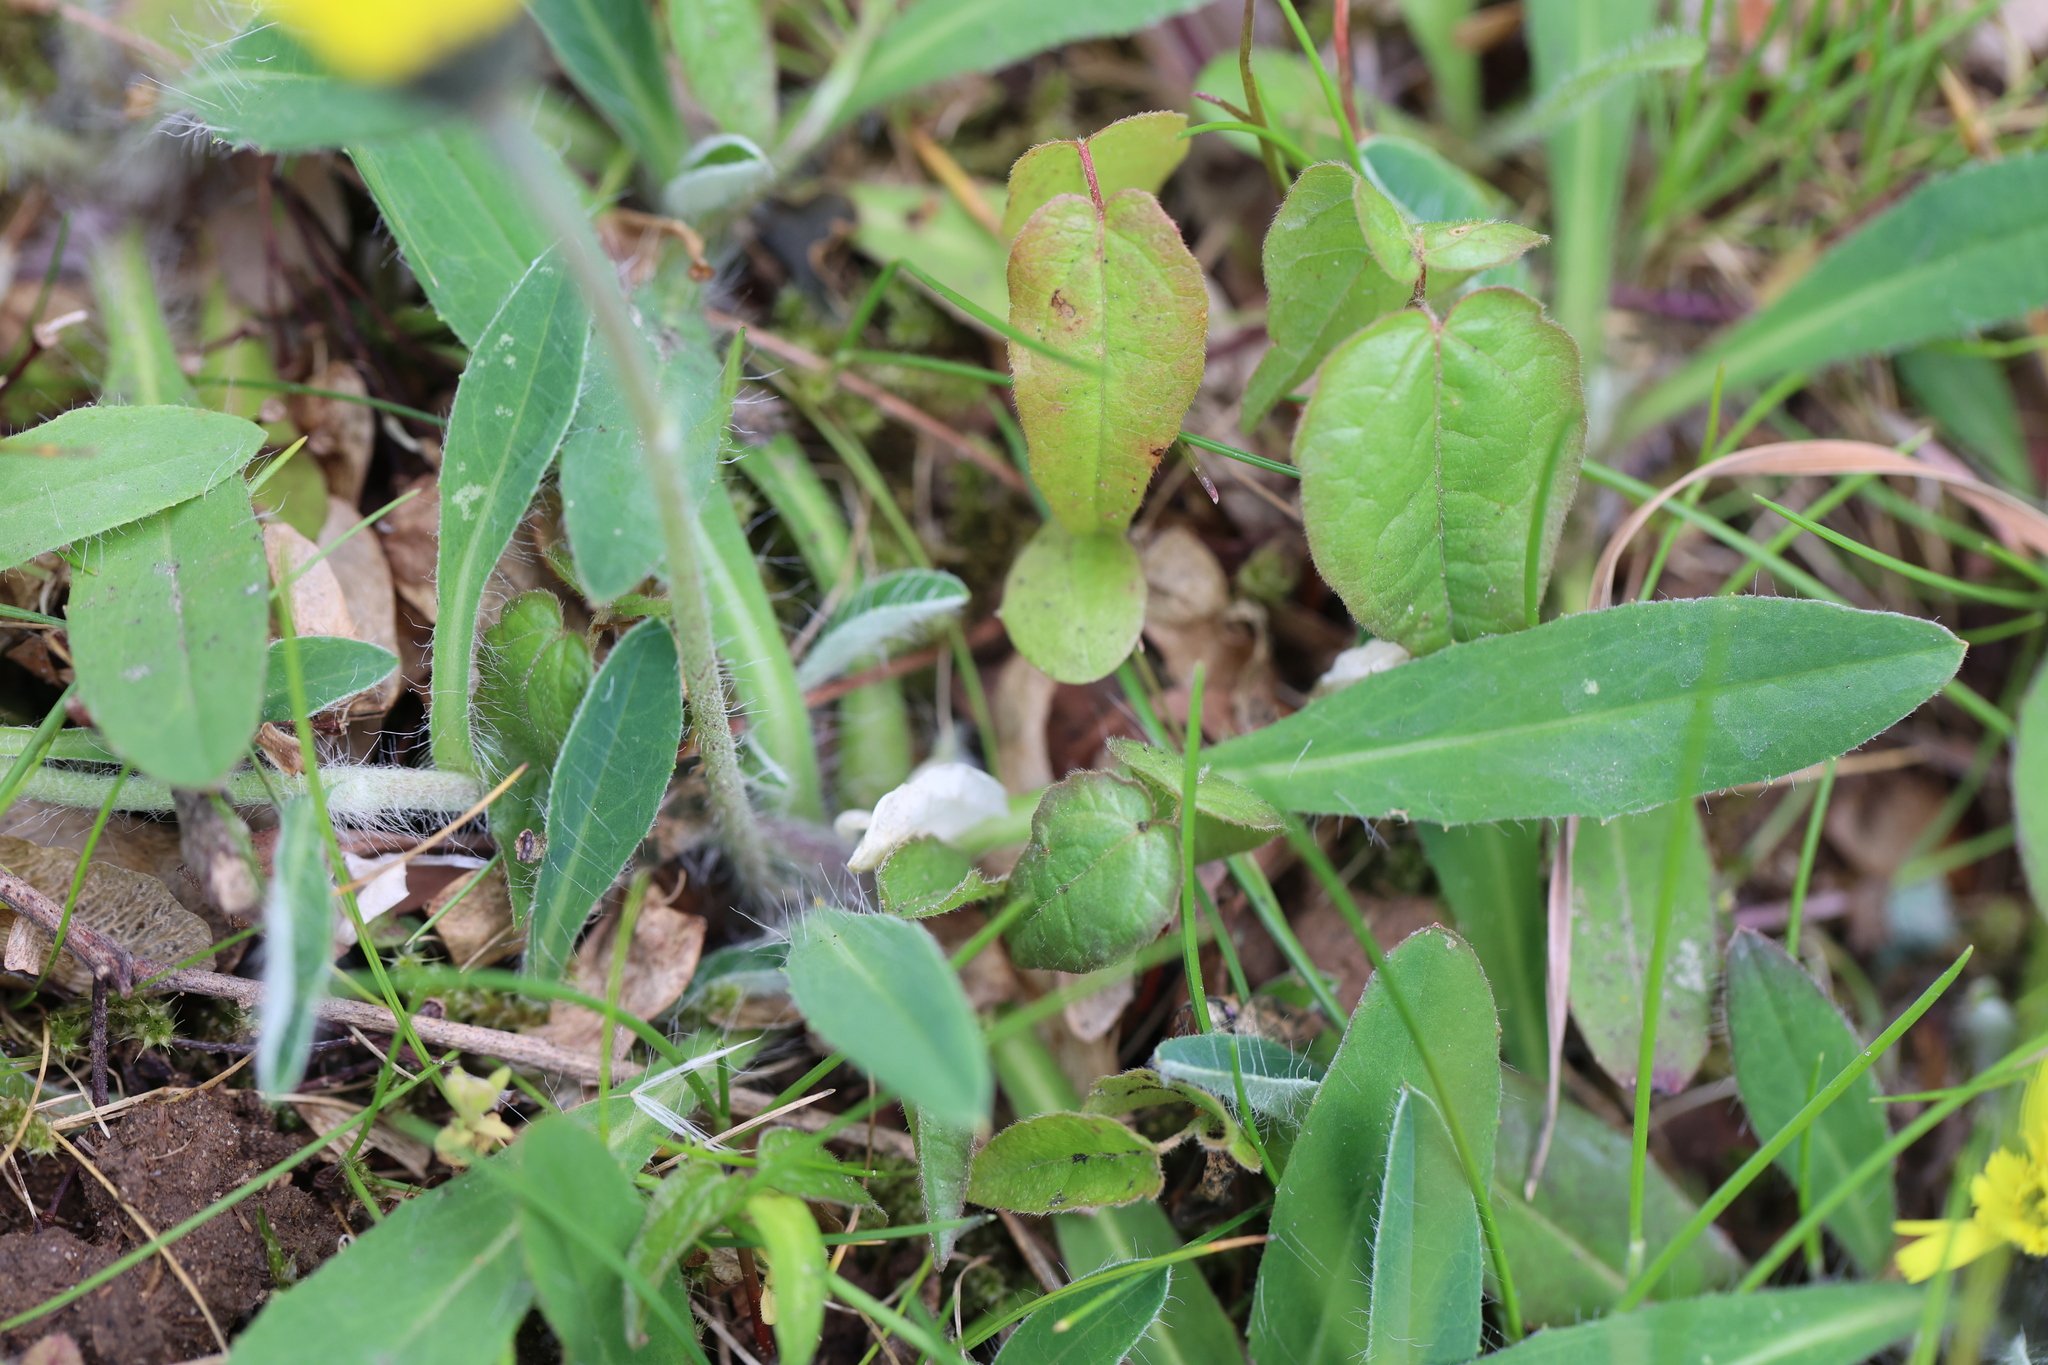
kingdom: Plantae
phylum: Tracheophyta
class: Magnoliopsida
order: Asterales
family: Asteraceae
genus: Pilosella
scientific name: Pilosella officinarum
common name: Mouse-ear hawkweed
